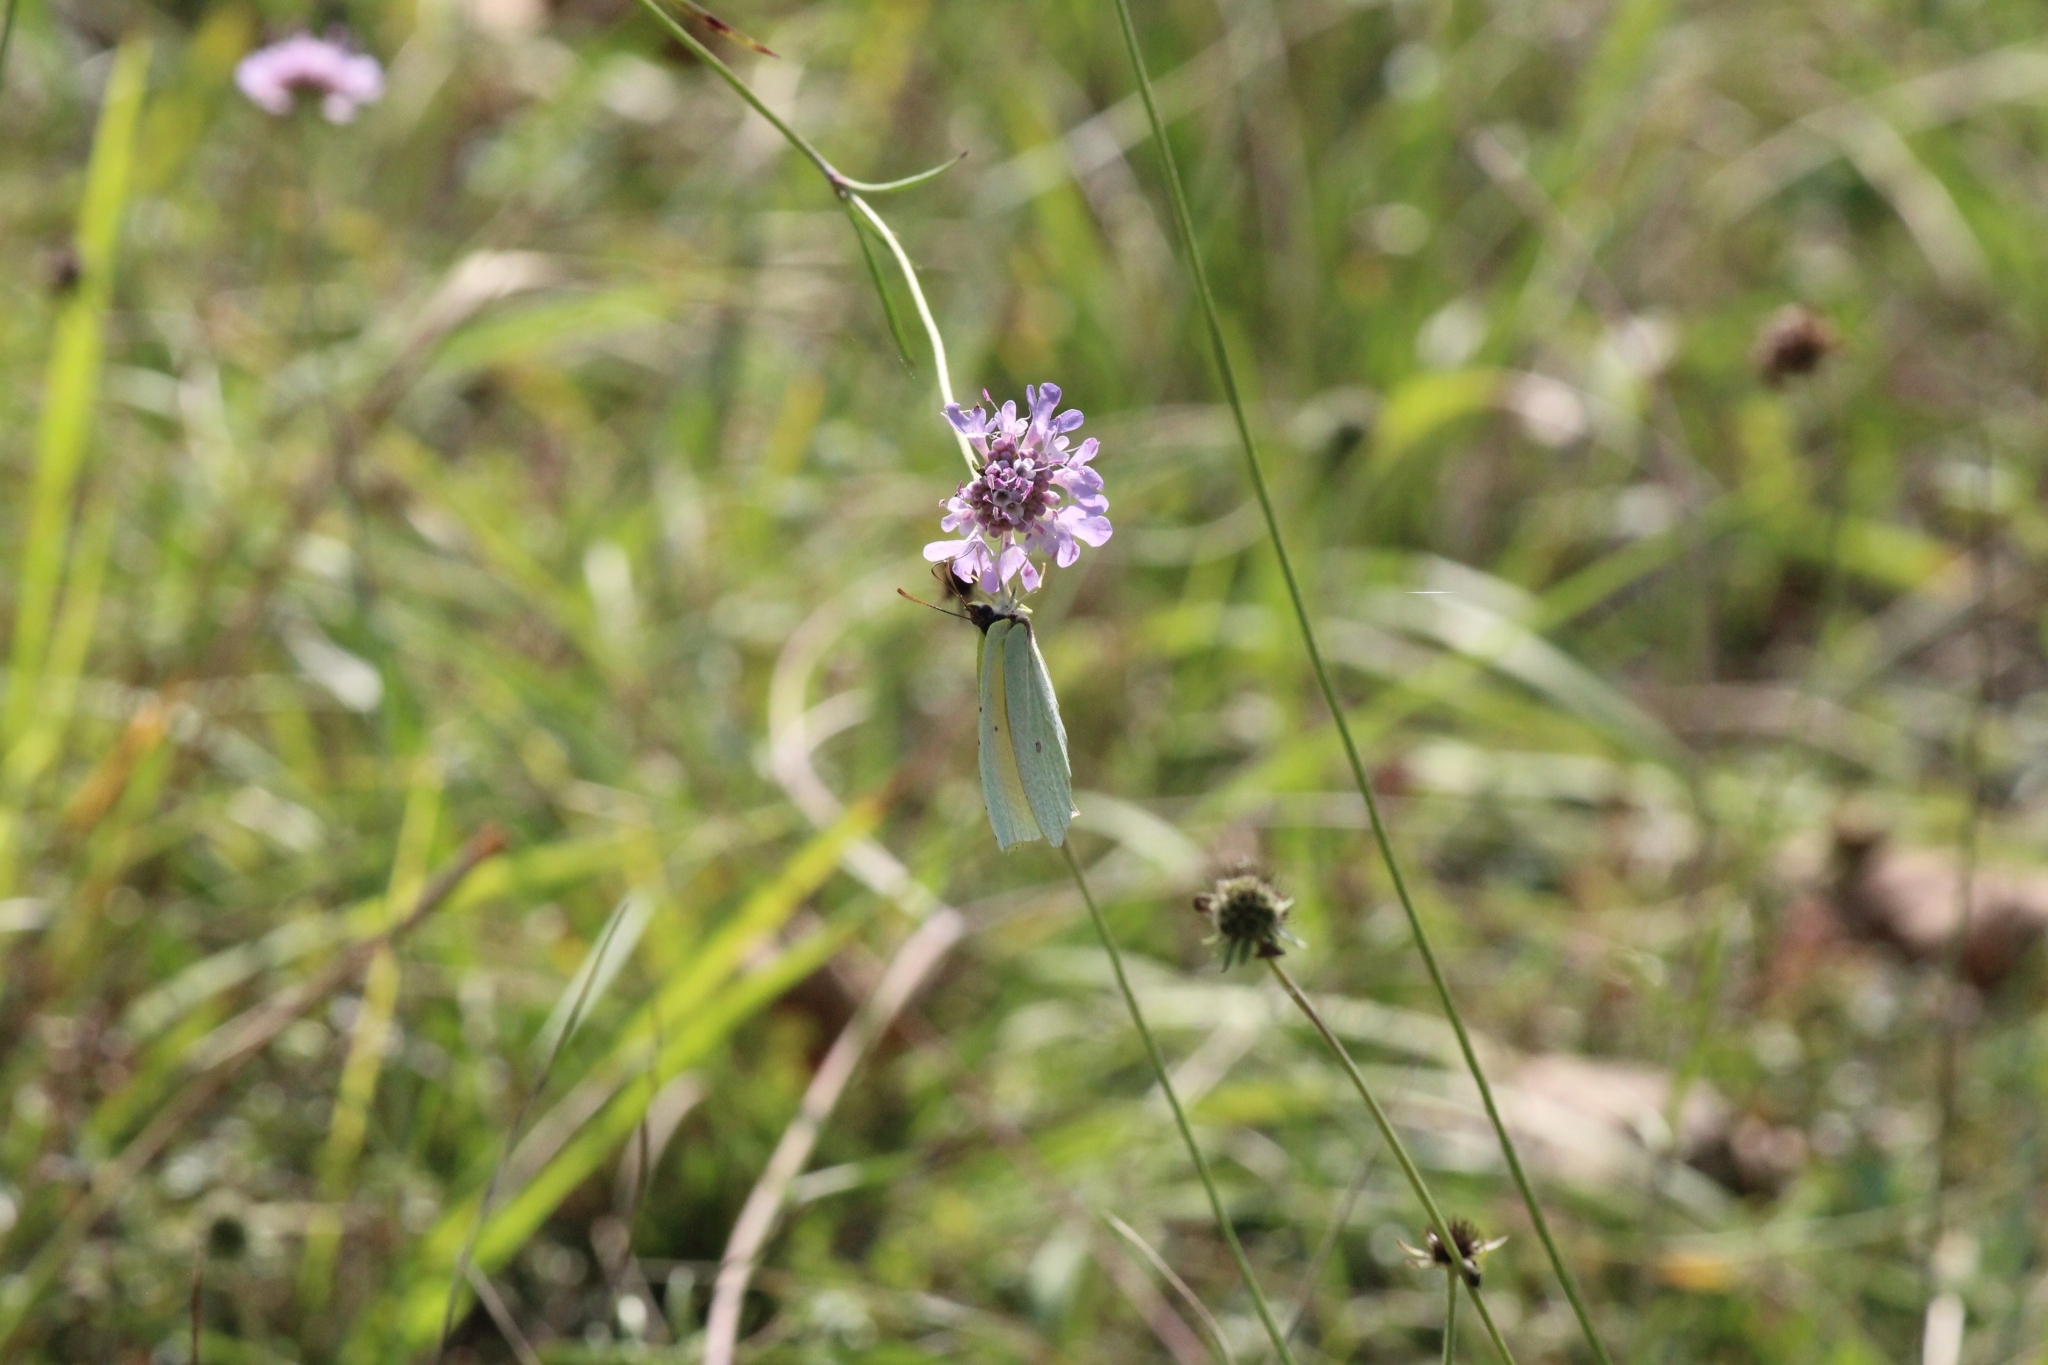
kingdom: Animalia
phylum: Arthropoda
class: Insecta
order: Lepidoptera
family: Pieridae
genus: Gonepteryx
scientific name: Gonepteryx cleopatra
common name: Cleopatra
